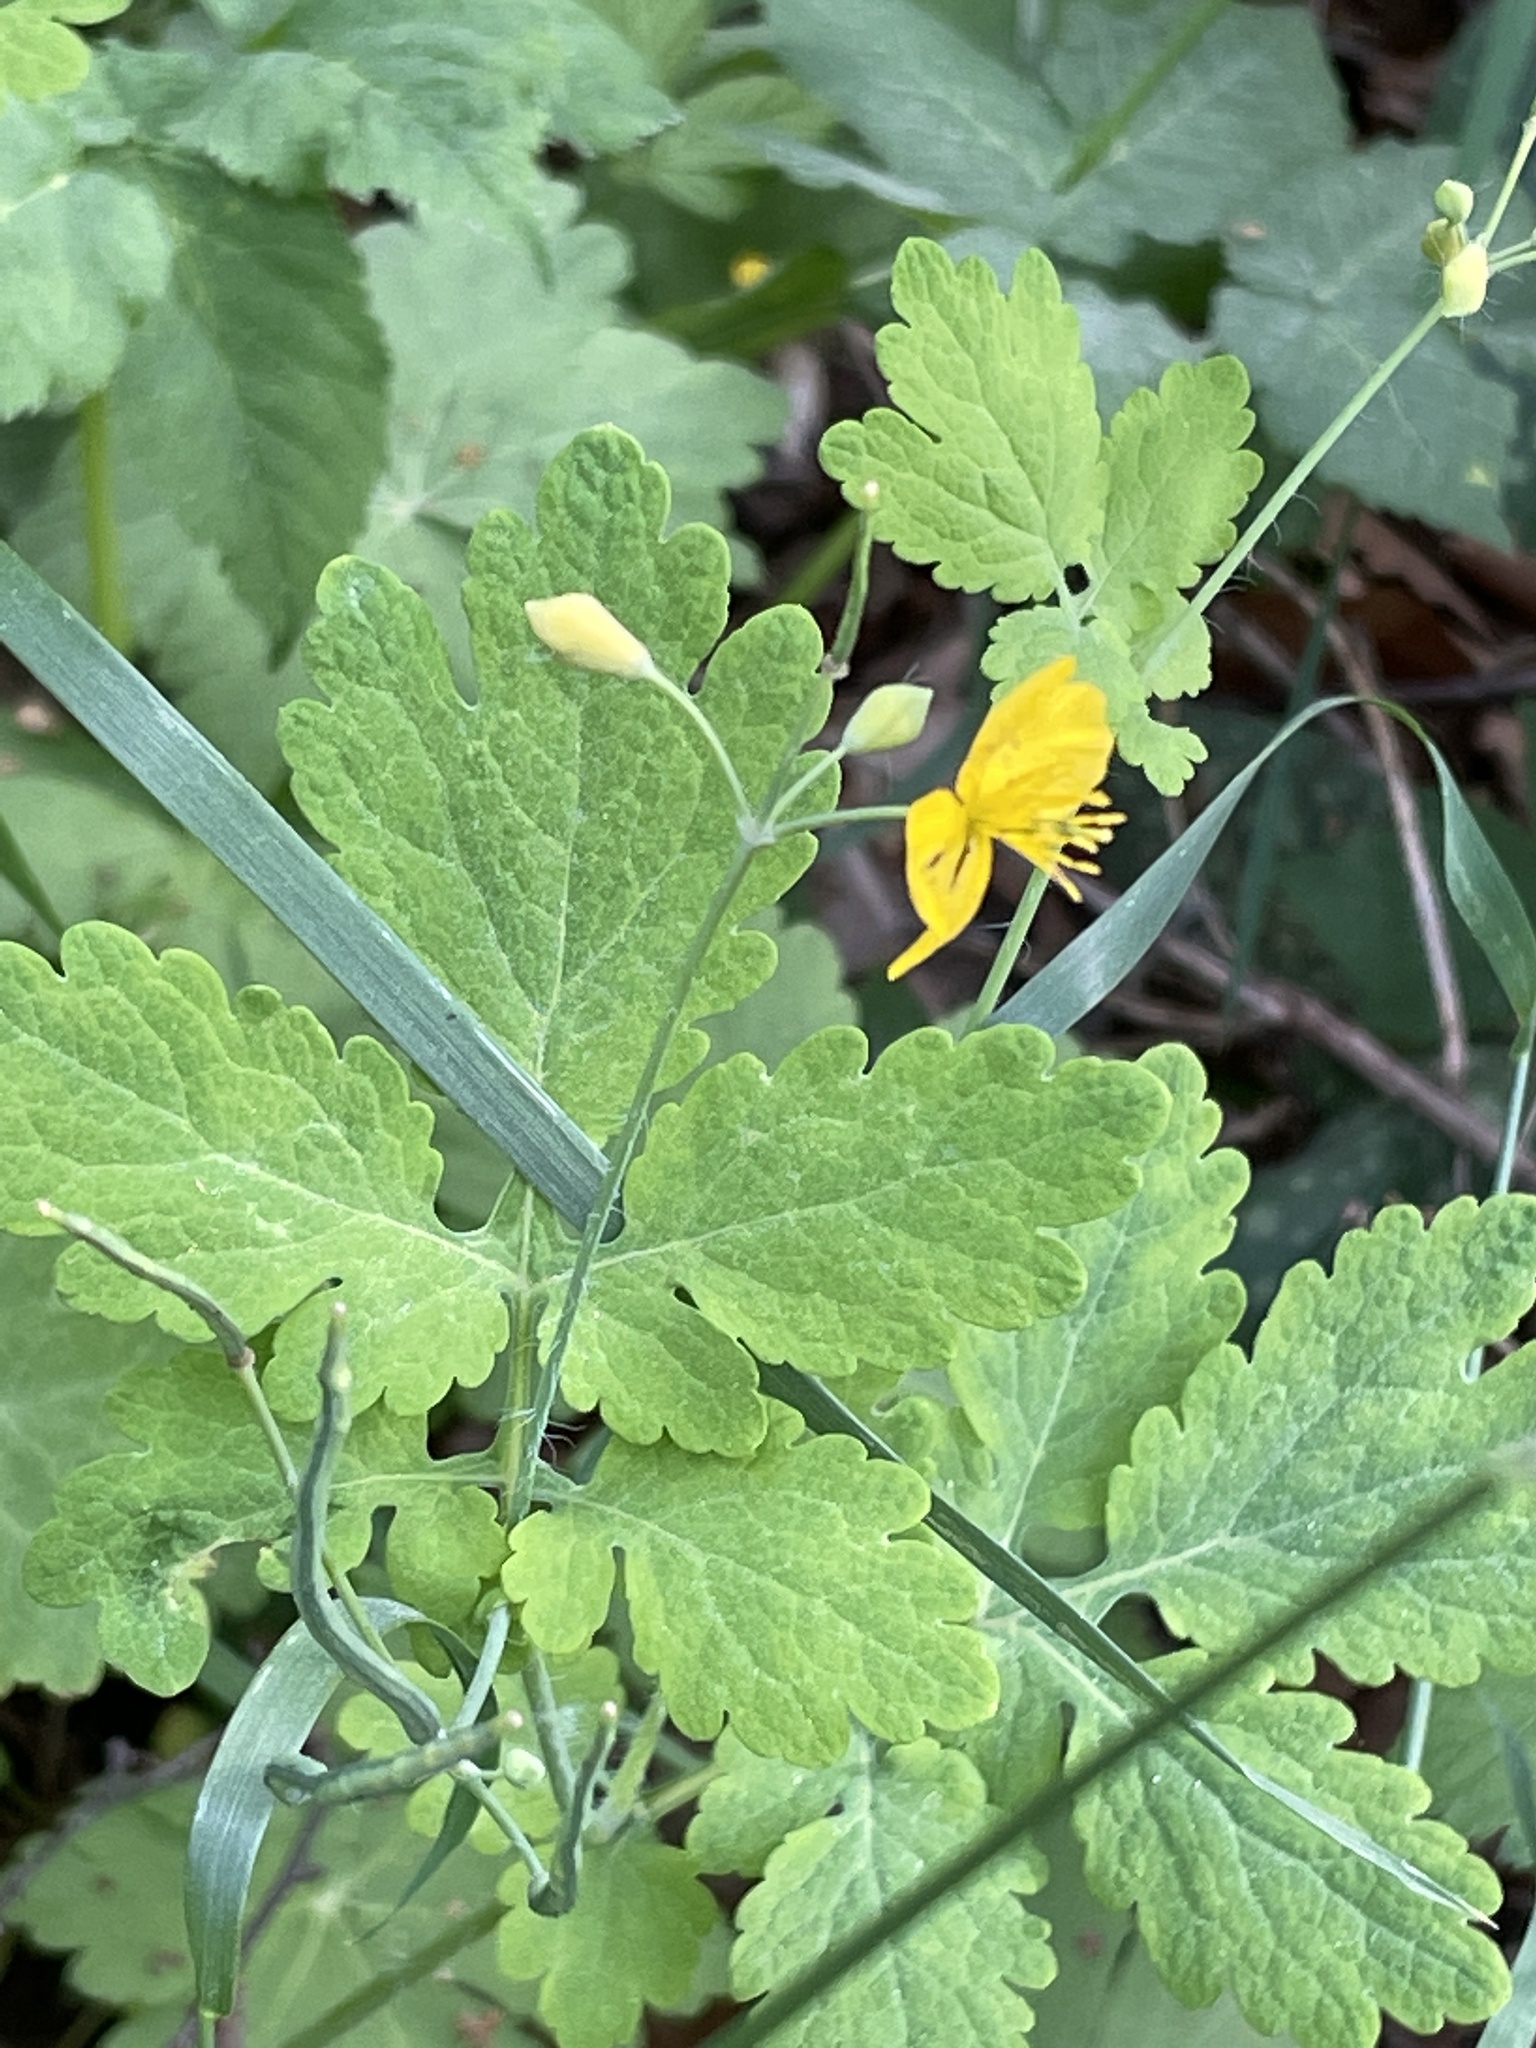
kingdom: Plantae
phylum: Tracheophyta
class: Magnoliopsida
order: Ranunculales
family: Papaveraceae
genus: Chelidonium
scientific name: Chelidonium majus
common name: Greater celandine
